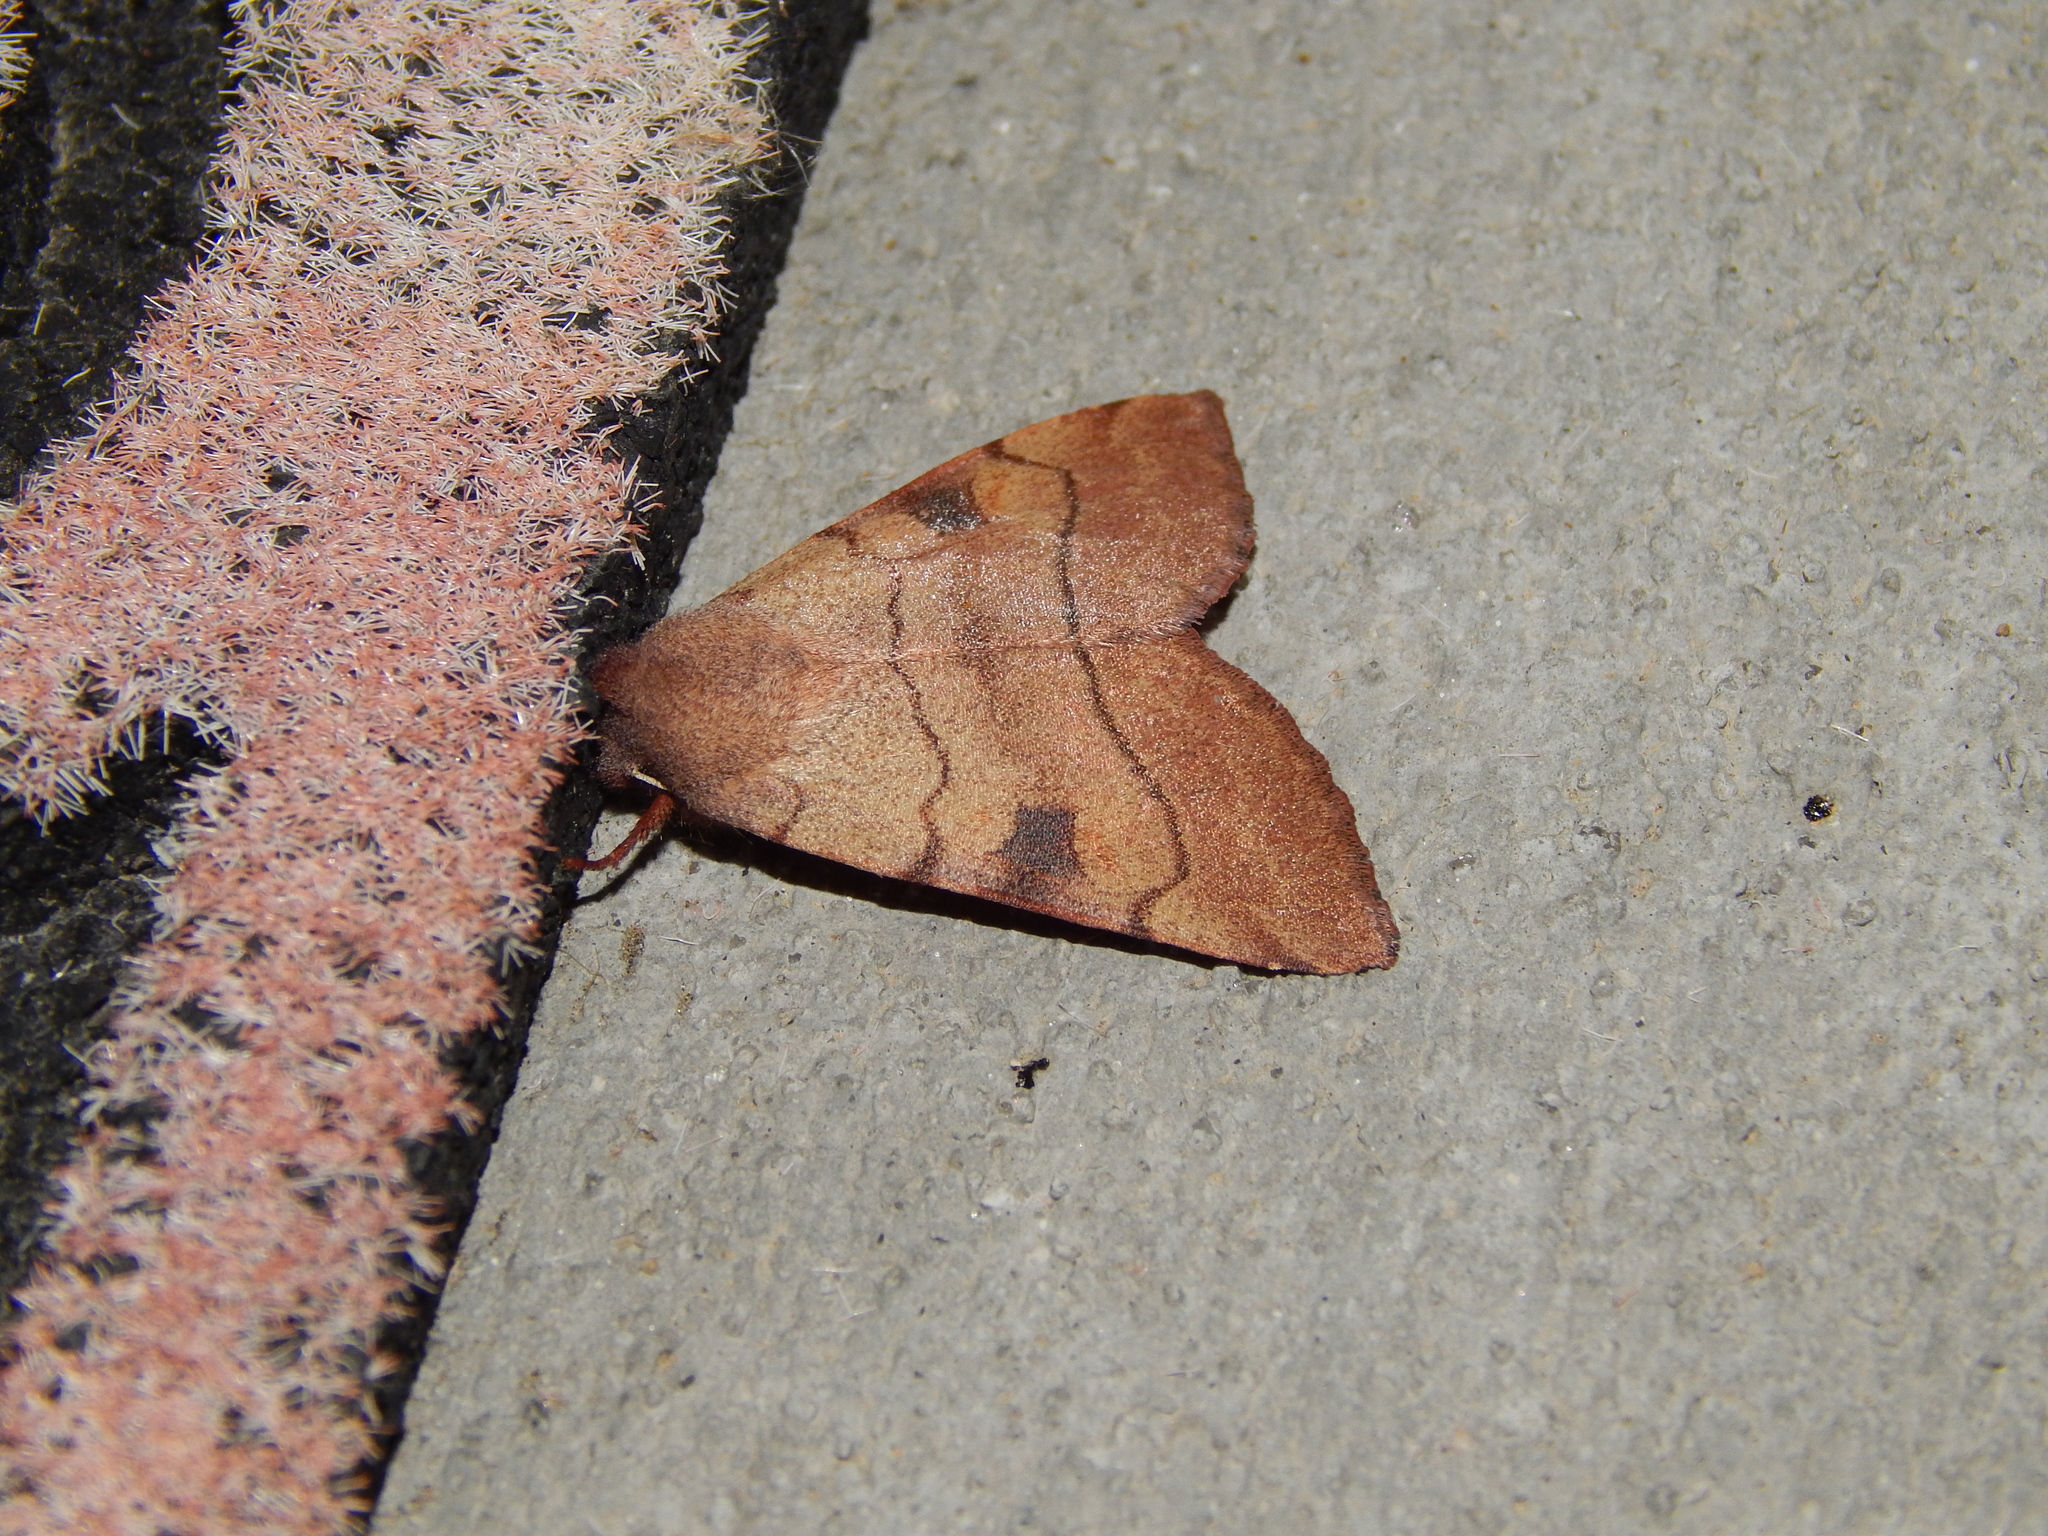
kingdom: Animalia
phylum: Arthropoda
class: Insecta
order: Lepidoptera
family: Noctuidae
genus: Choephora
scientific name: Choephora fungorum
